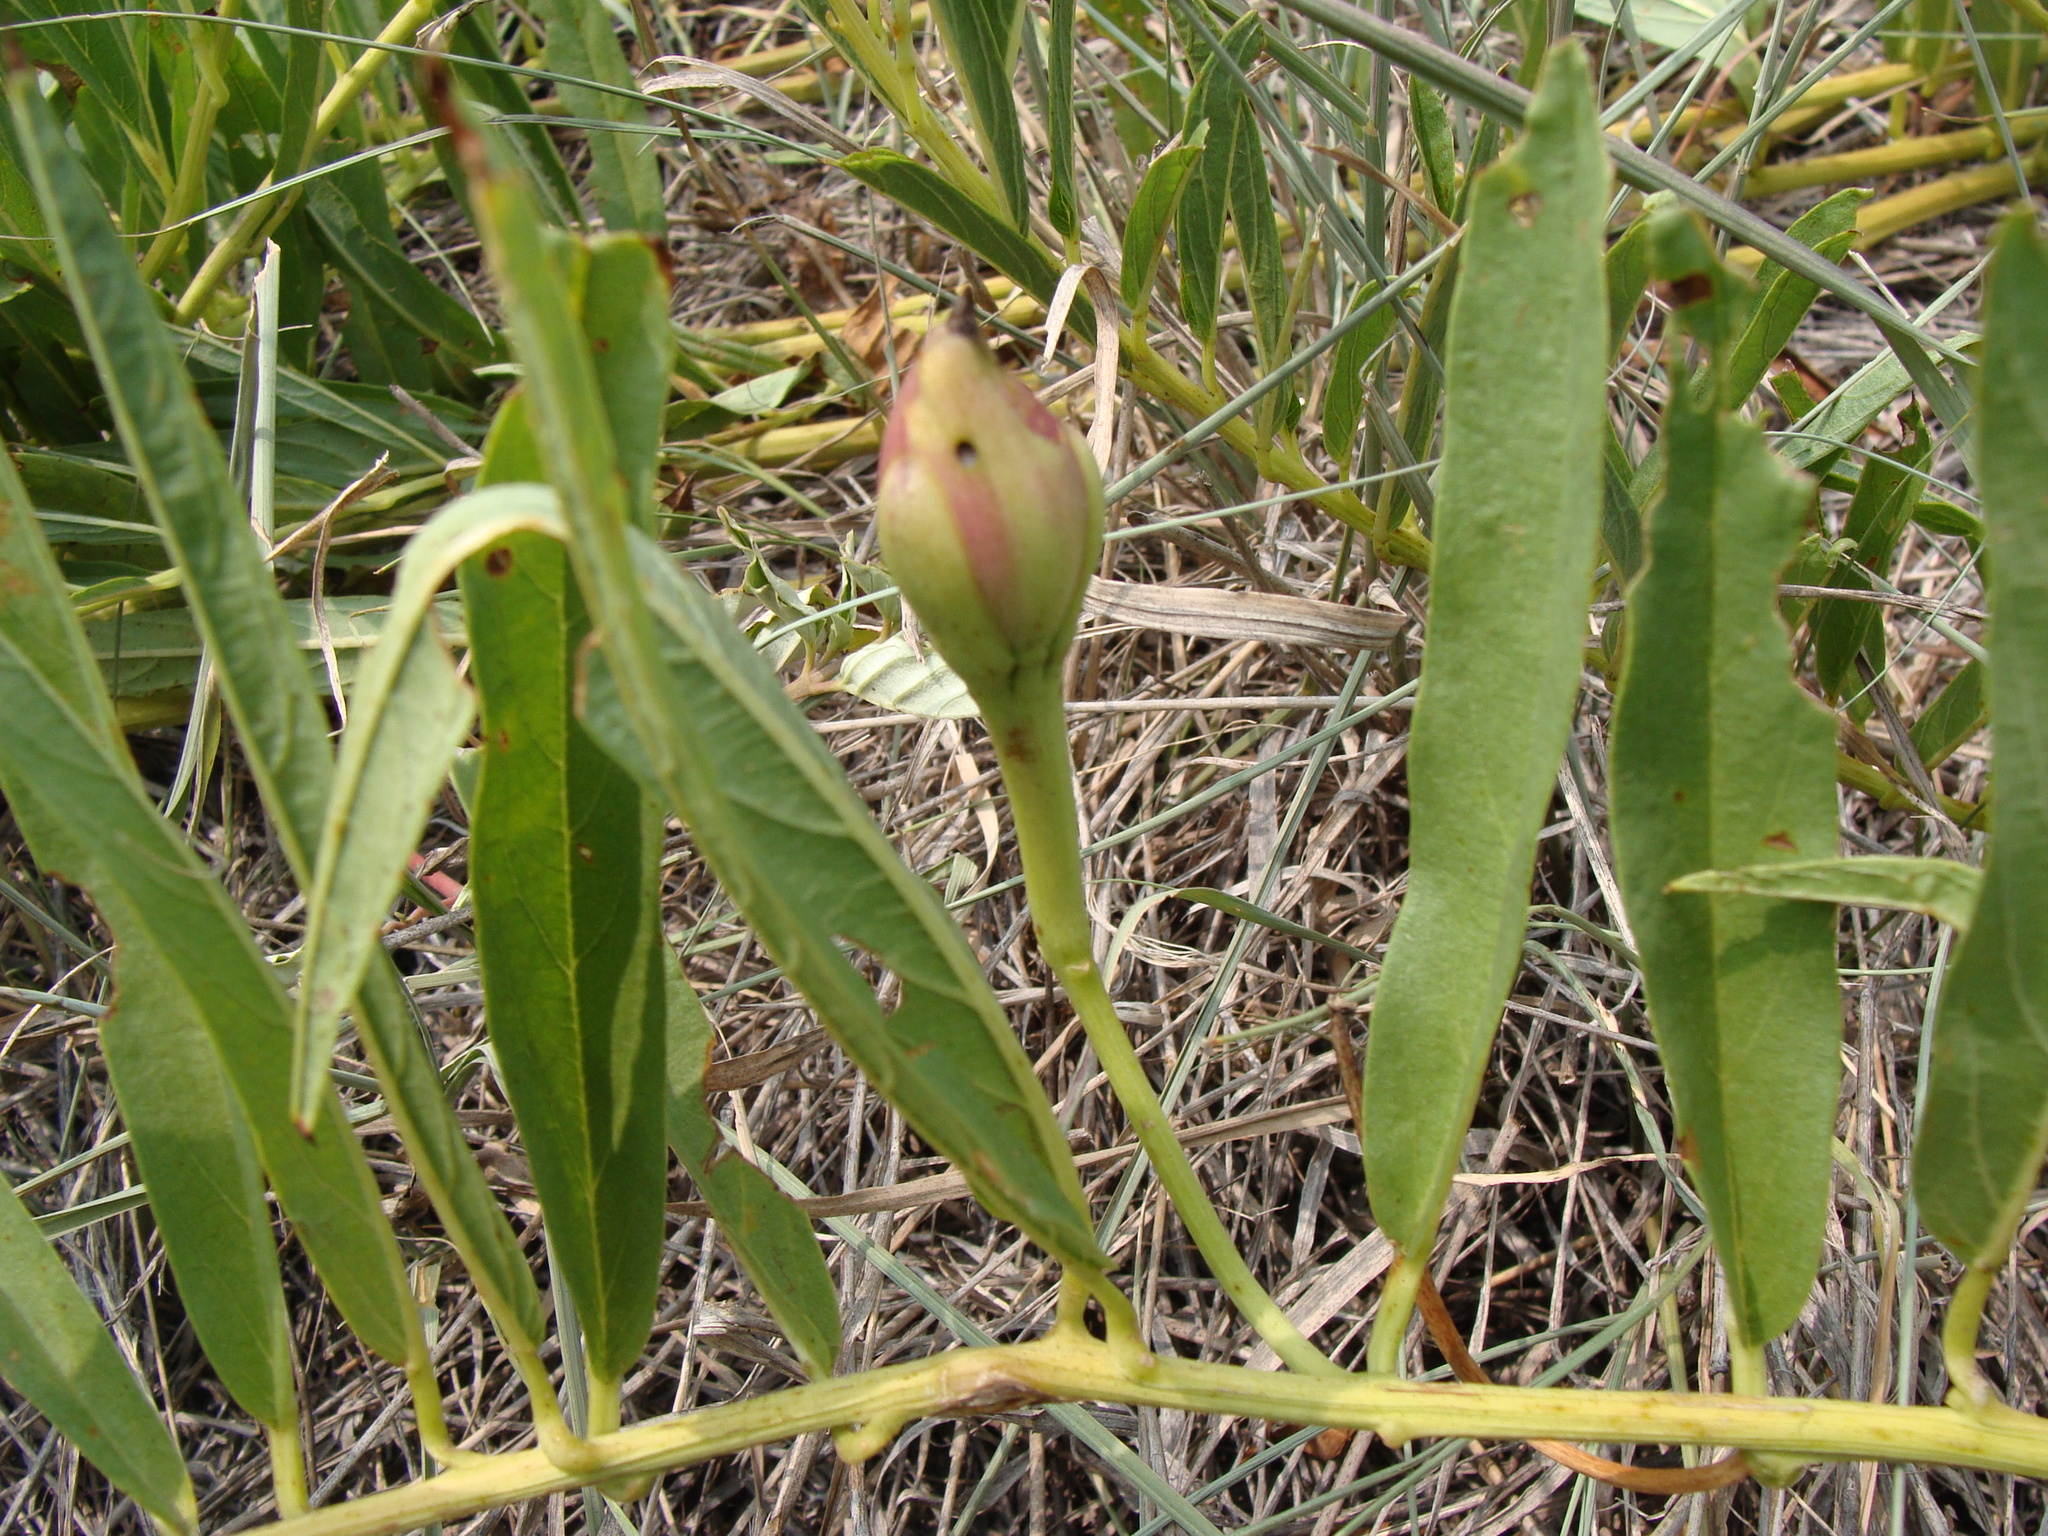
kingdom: Plantae
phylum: Tracheophyta
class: Magnoliopsida
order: Solanales
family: Convolvulaceae
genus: Ipomoea
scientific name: Ipomoea longifolia
